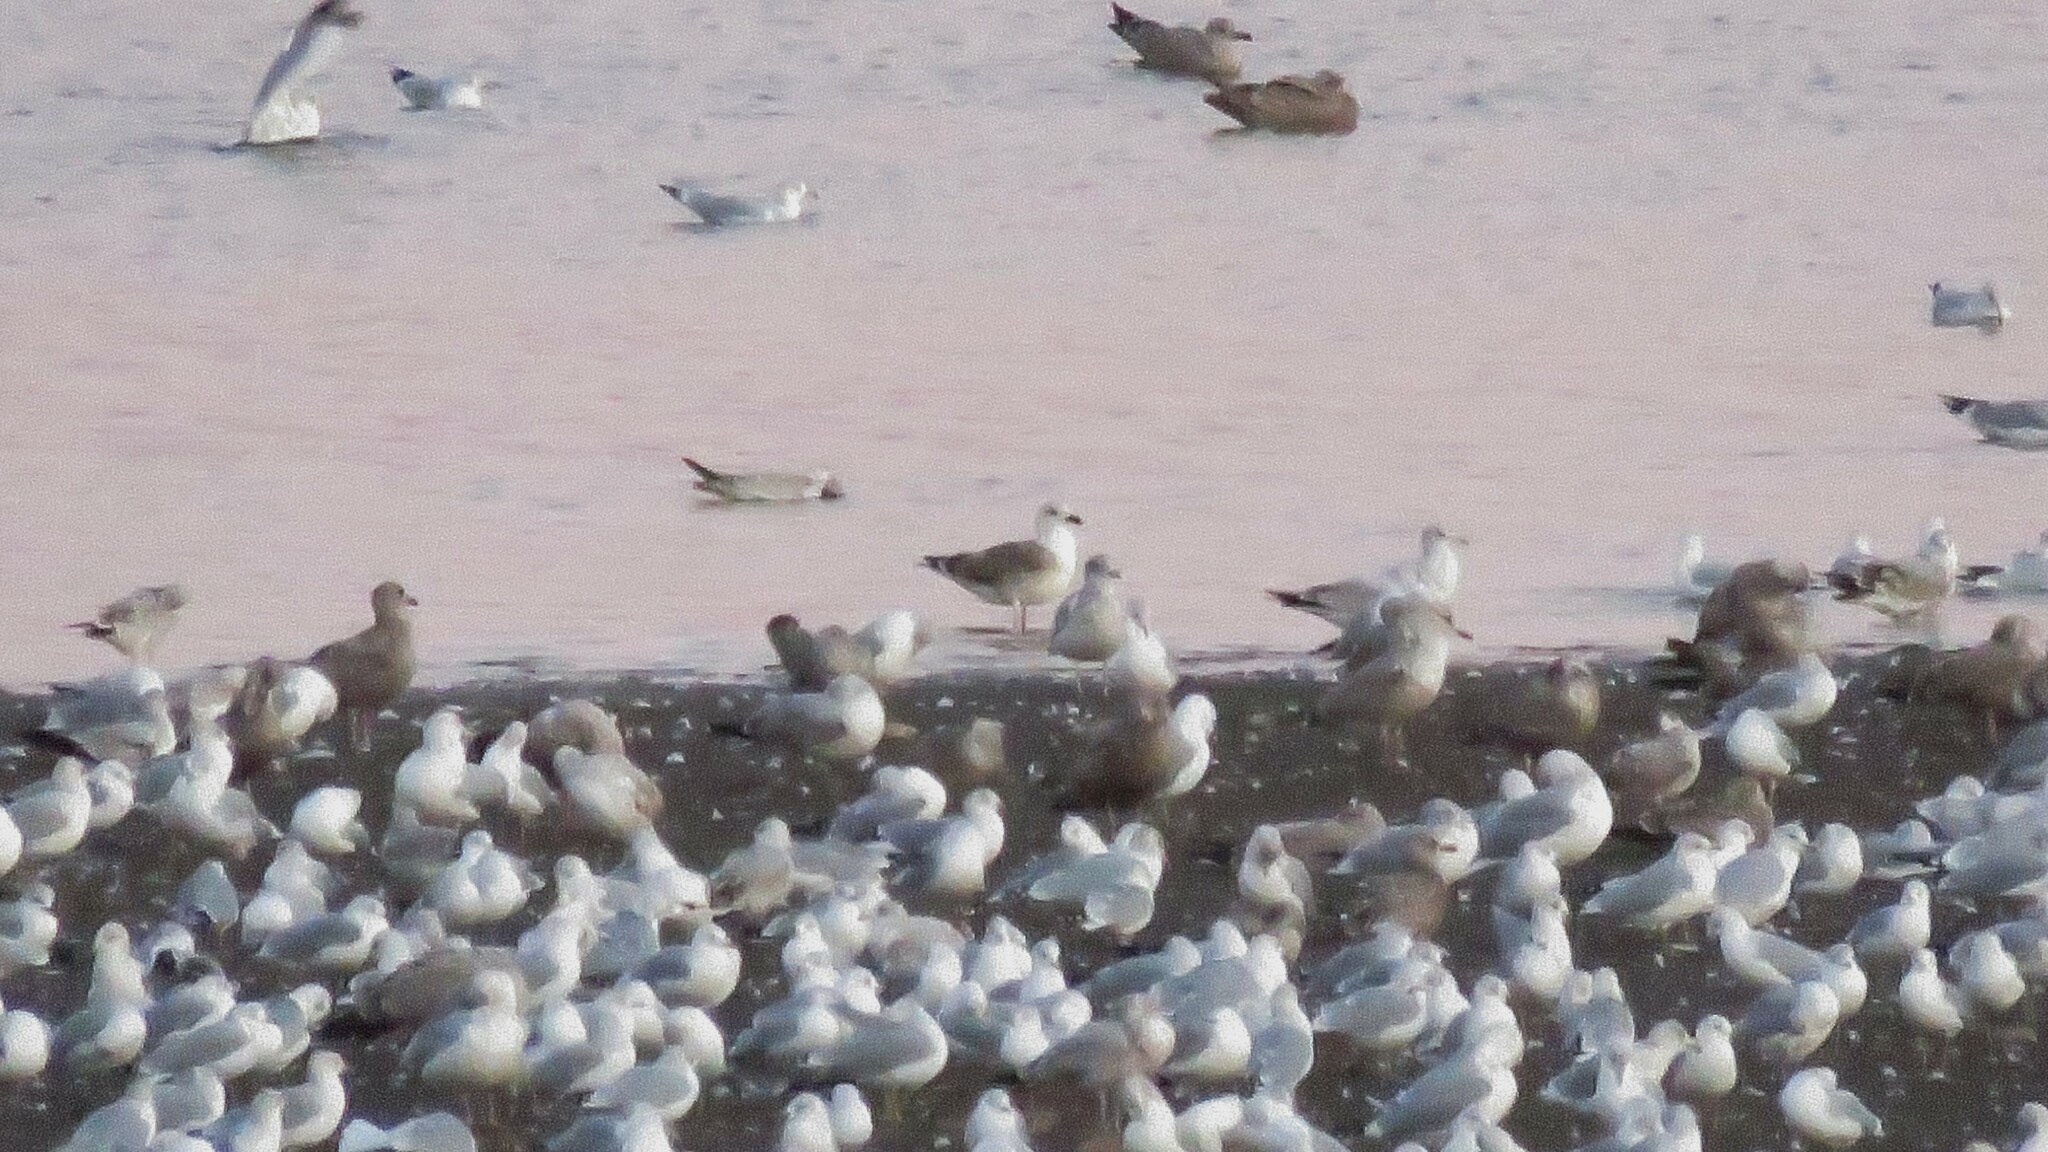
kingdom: Animalia
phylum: Chordata
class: Aves
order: Charadriiformes
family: Laridae
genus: Larus
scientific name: Larus fuscus
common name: Lesser black-backed gull
